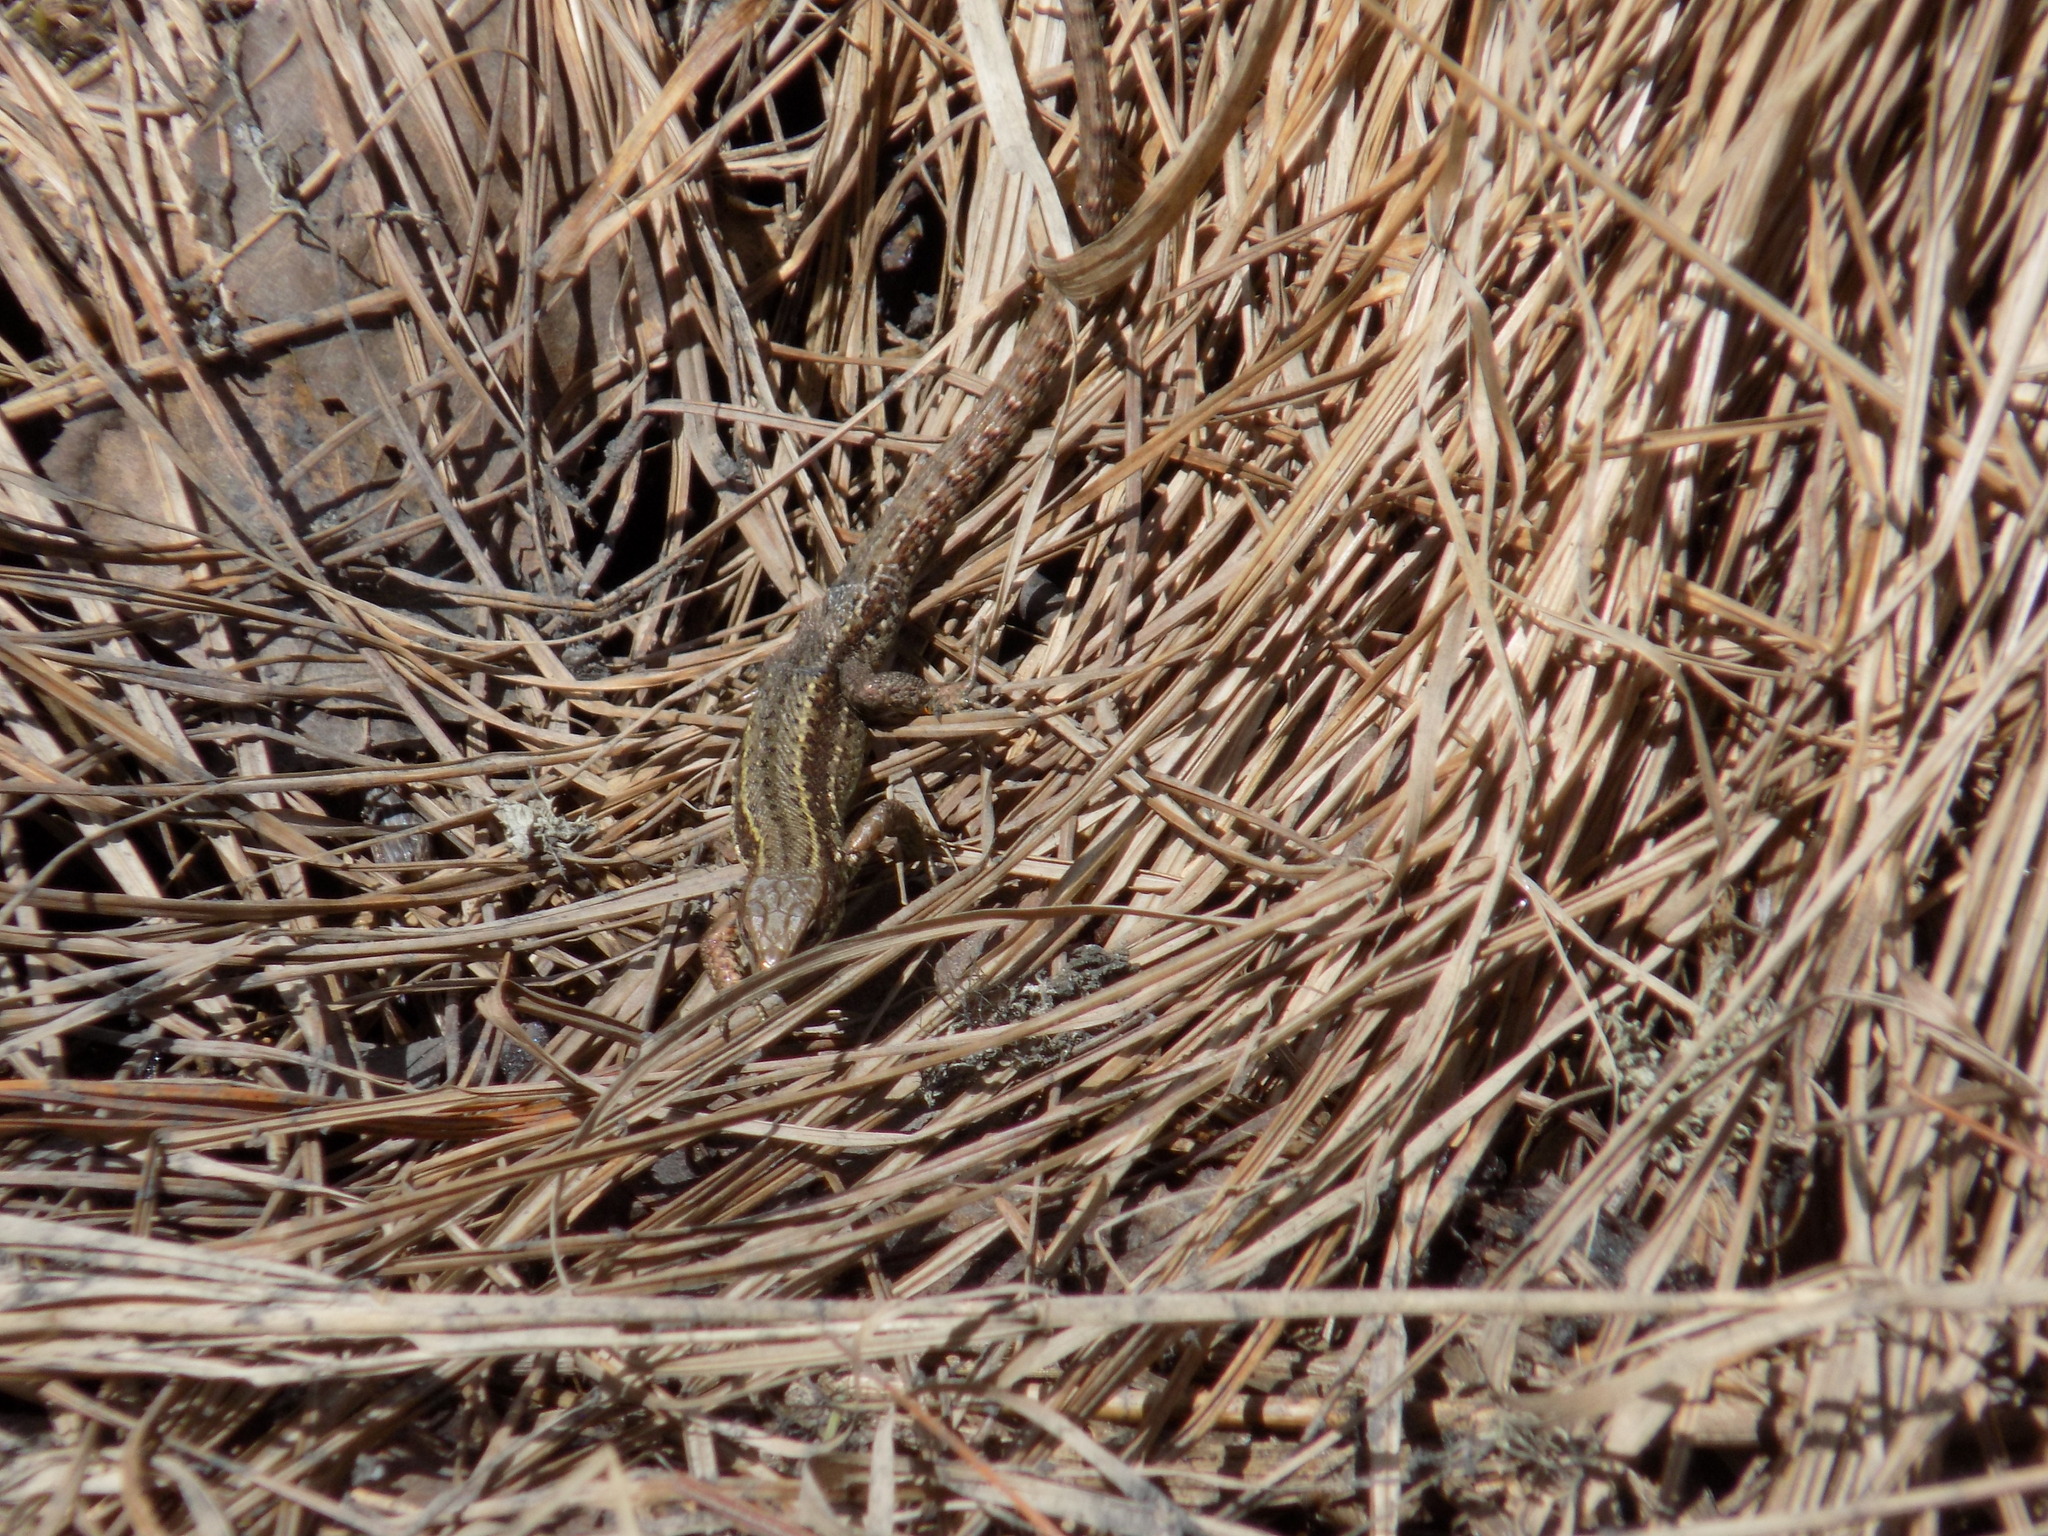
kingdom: Animalia
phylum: Chordata
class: Squamata
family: Lacertidae
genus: Zootoca
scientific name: Zootoca vivipara
